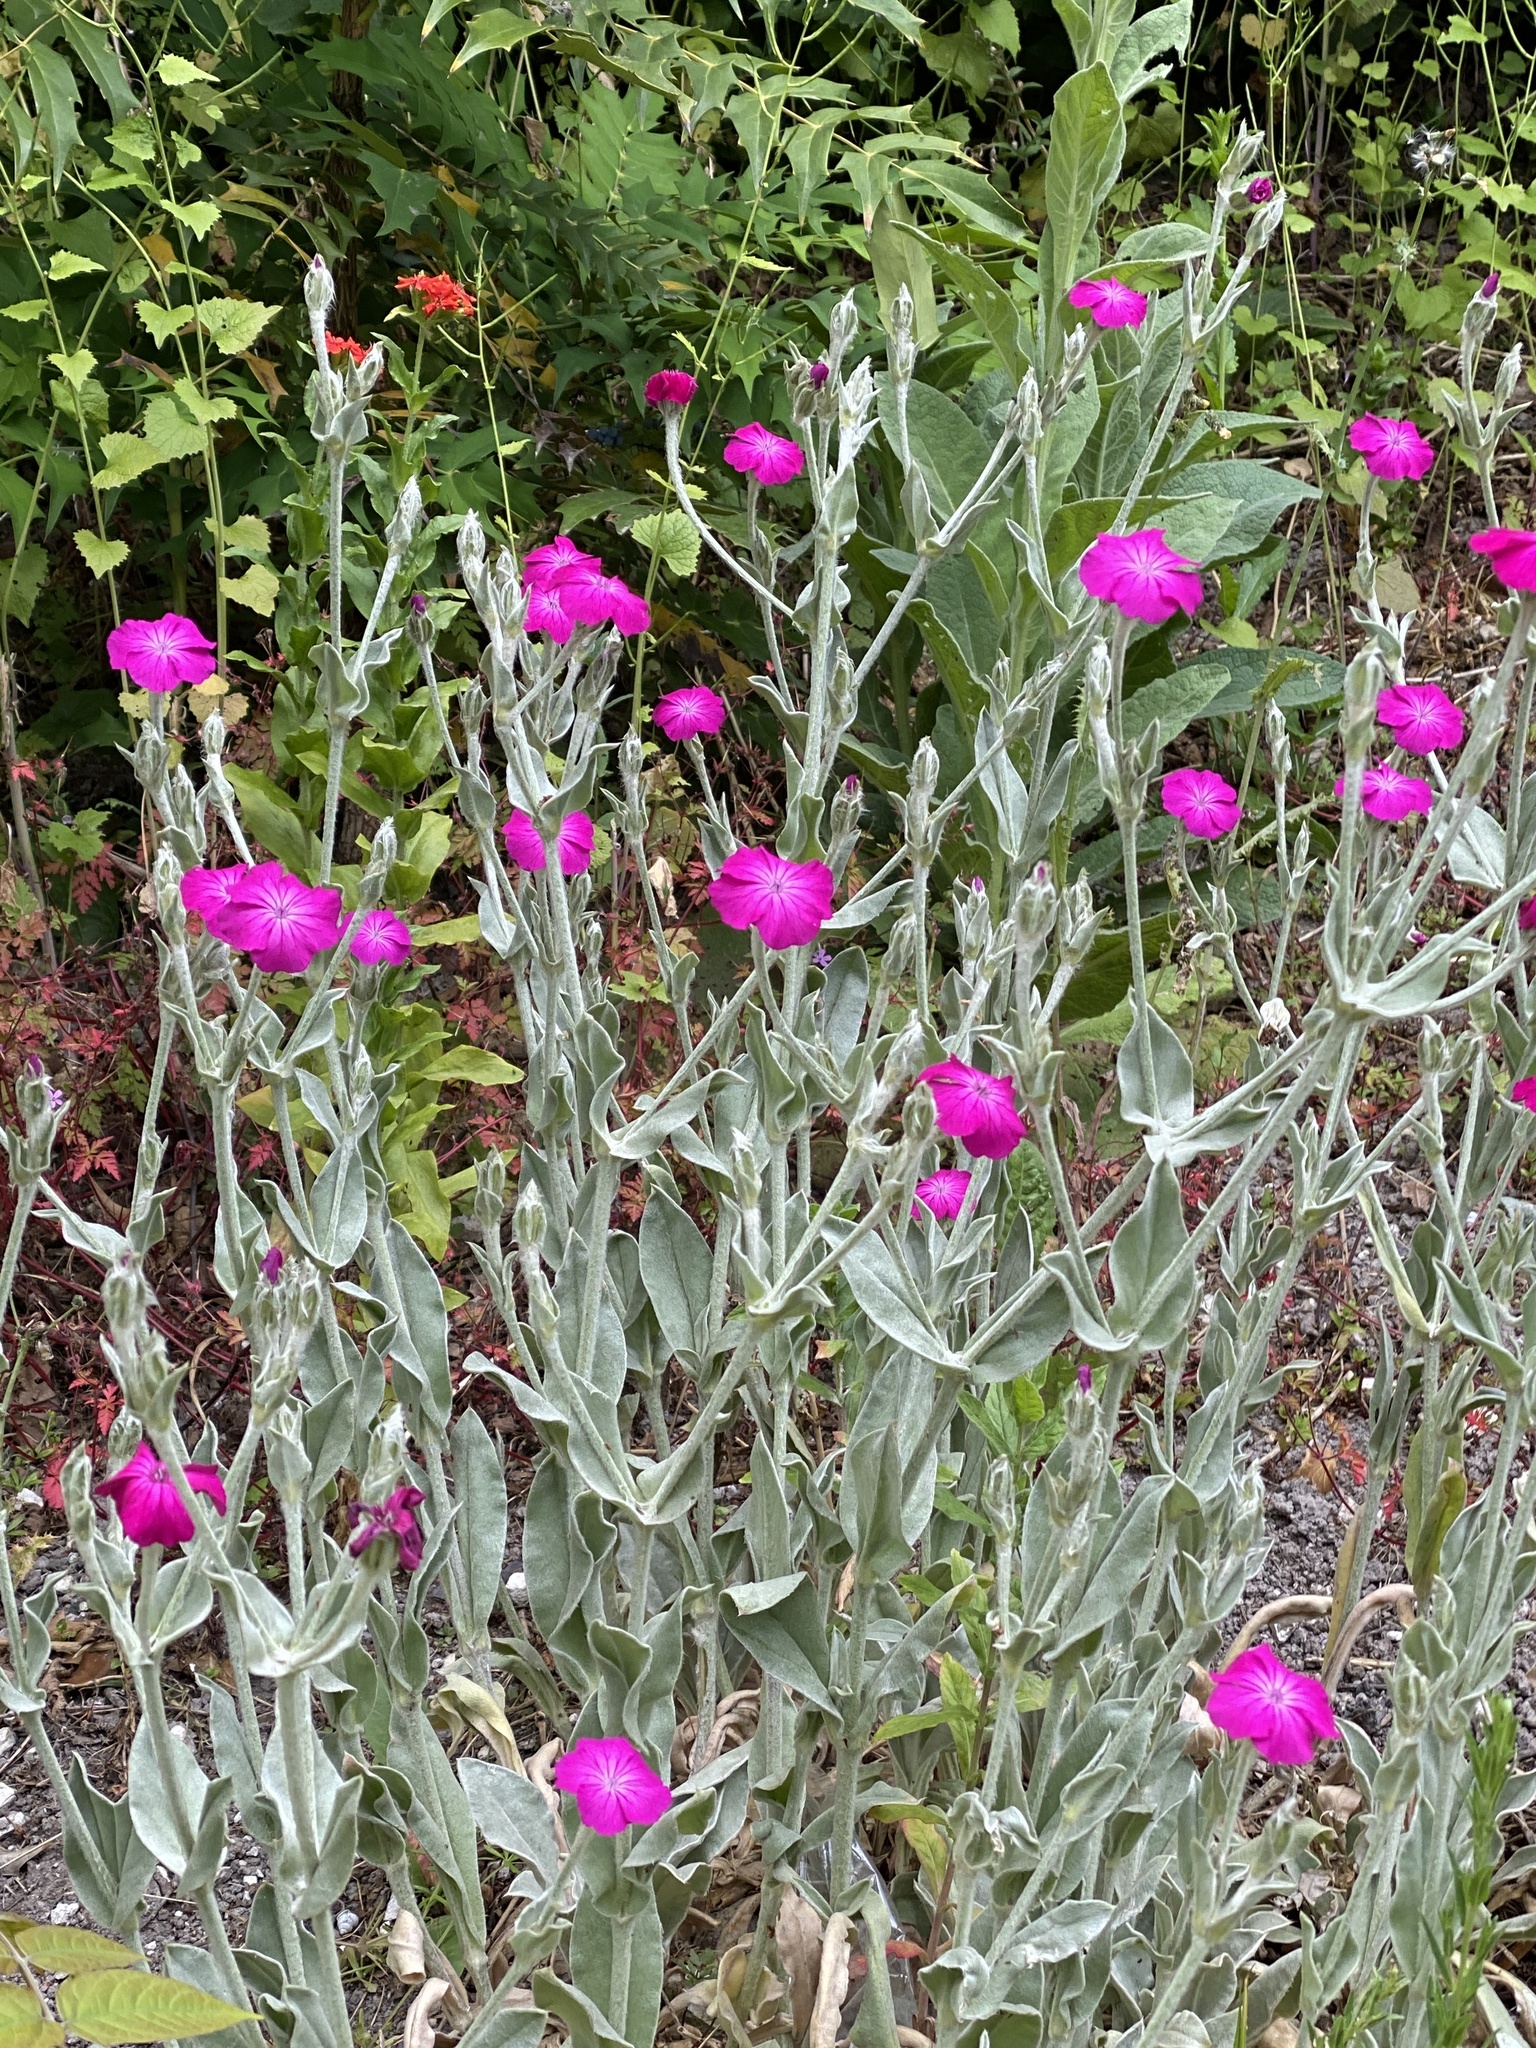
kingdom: Plantae
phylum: Tracheophyta
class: Magnoliopsida
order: Caryophyllales
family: Caryophyllaceae
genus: Silene
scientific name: Silene coronaria
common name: Rose campion
